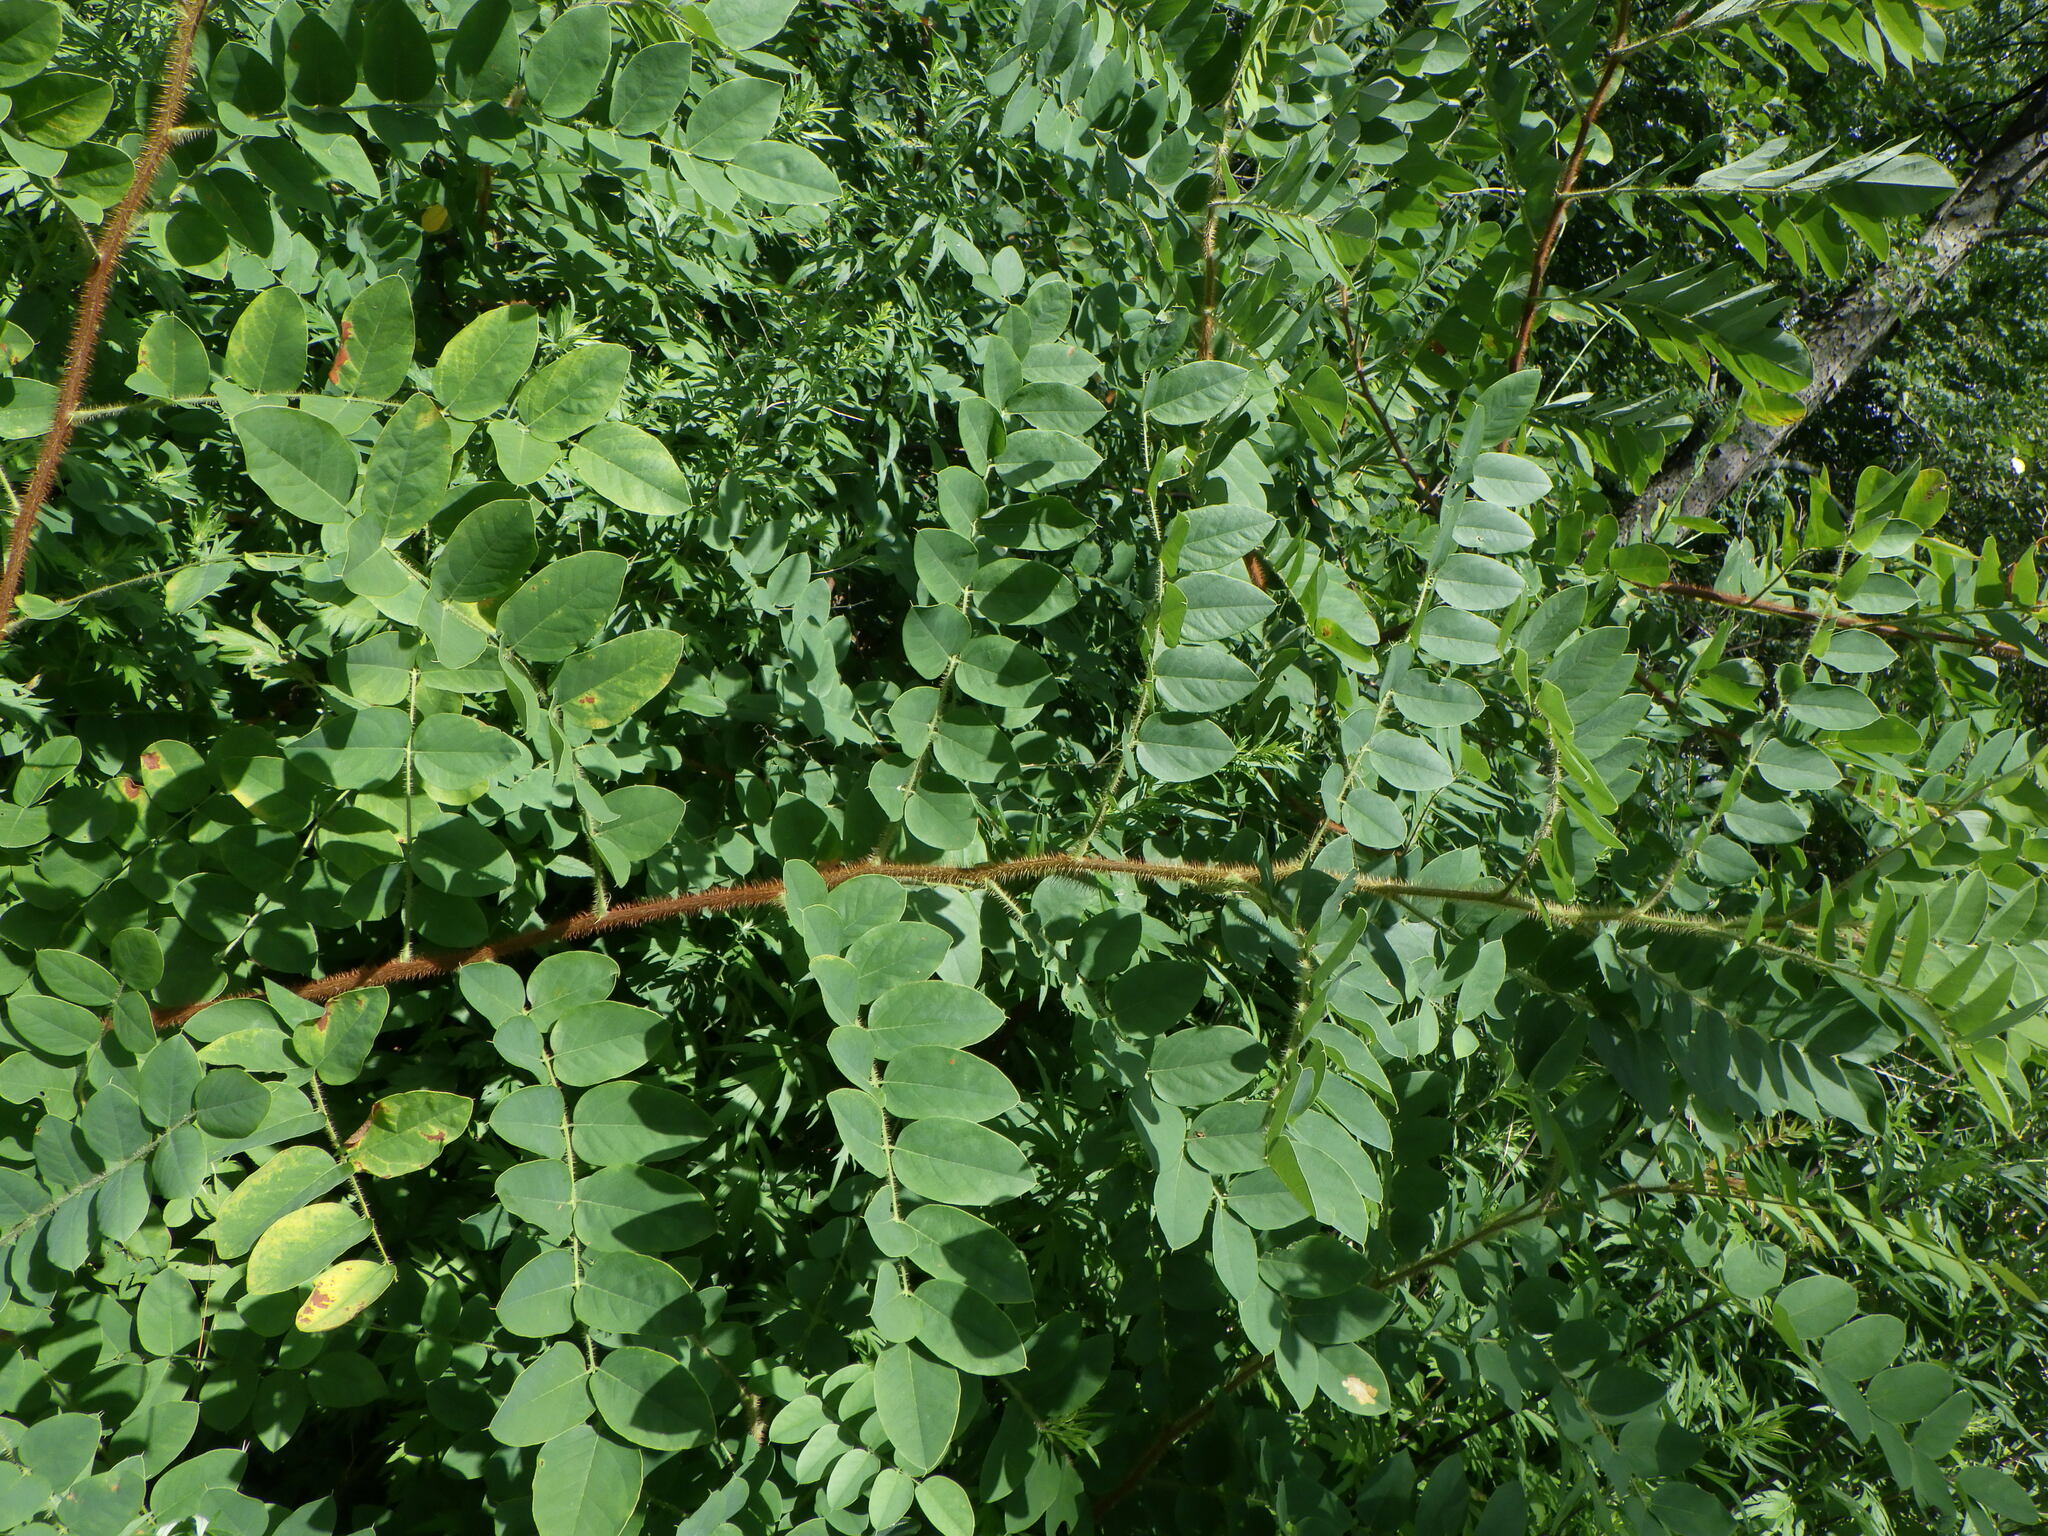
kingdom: Plantae
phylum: Tracheophyta
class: Magnoliopsida
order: Fabales
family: Fabaceae
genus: Robinia
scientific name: Robinia hispida
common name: Bristly locust
